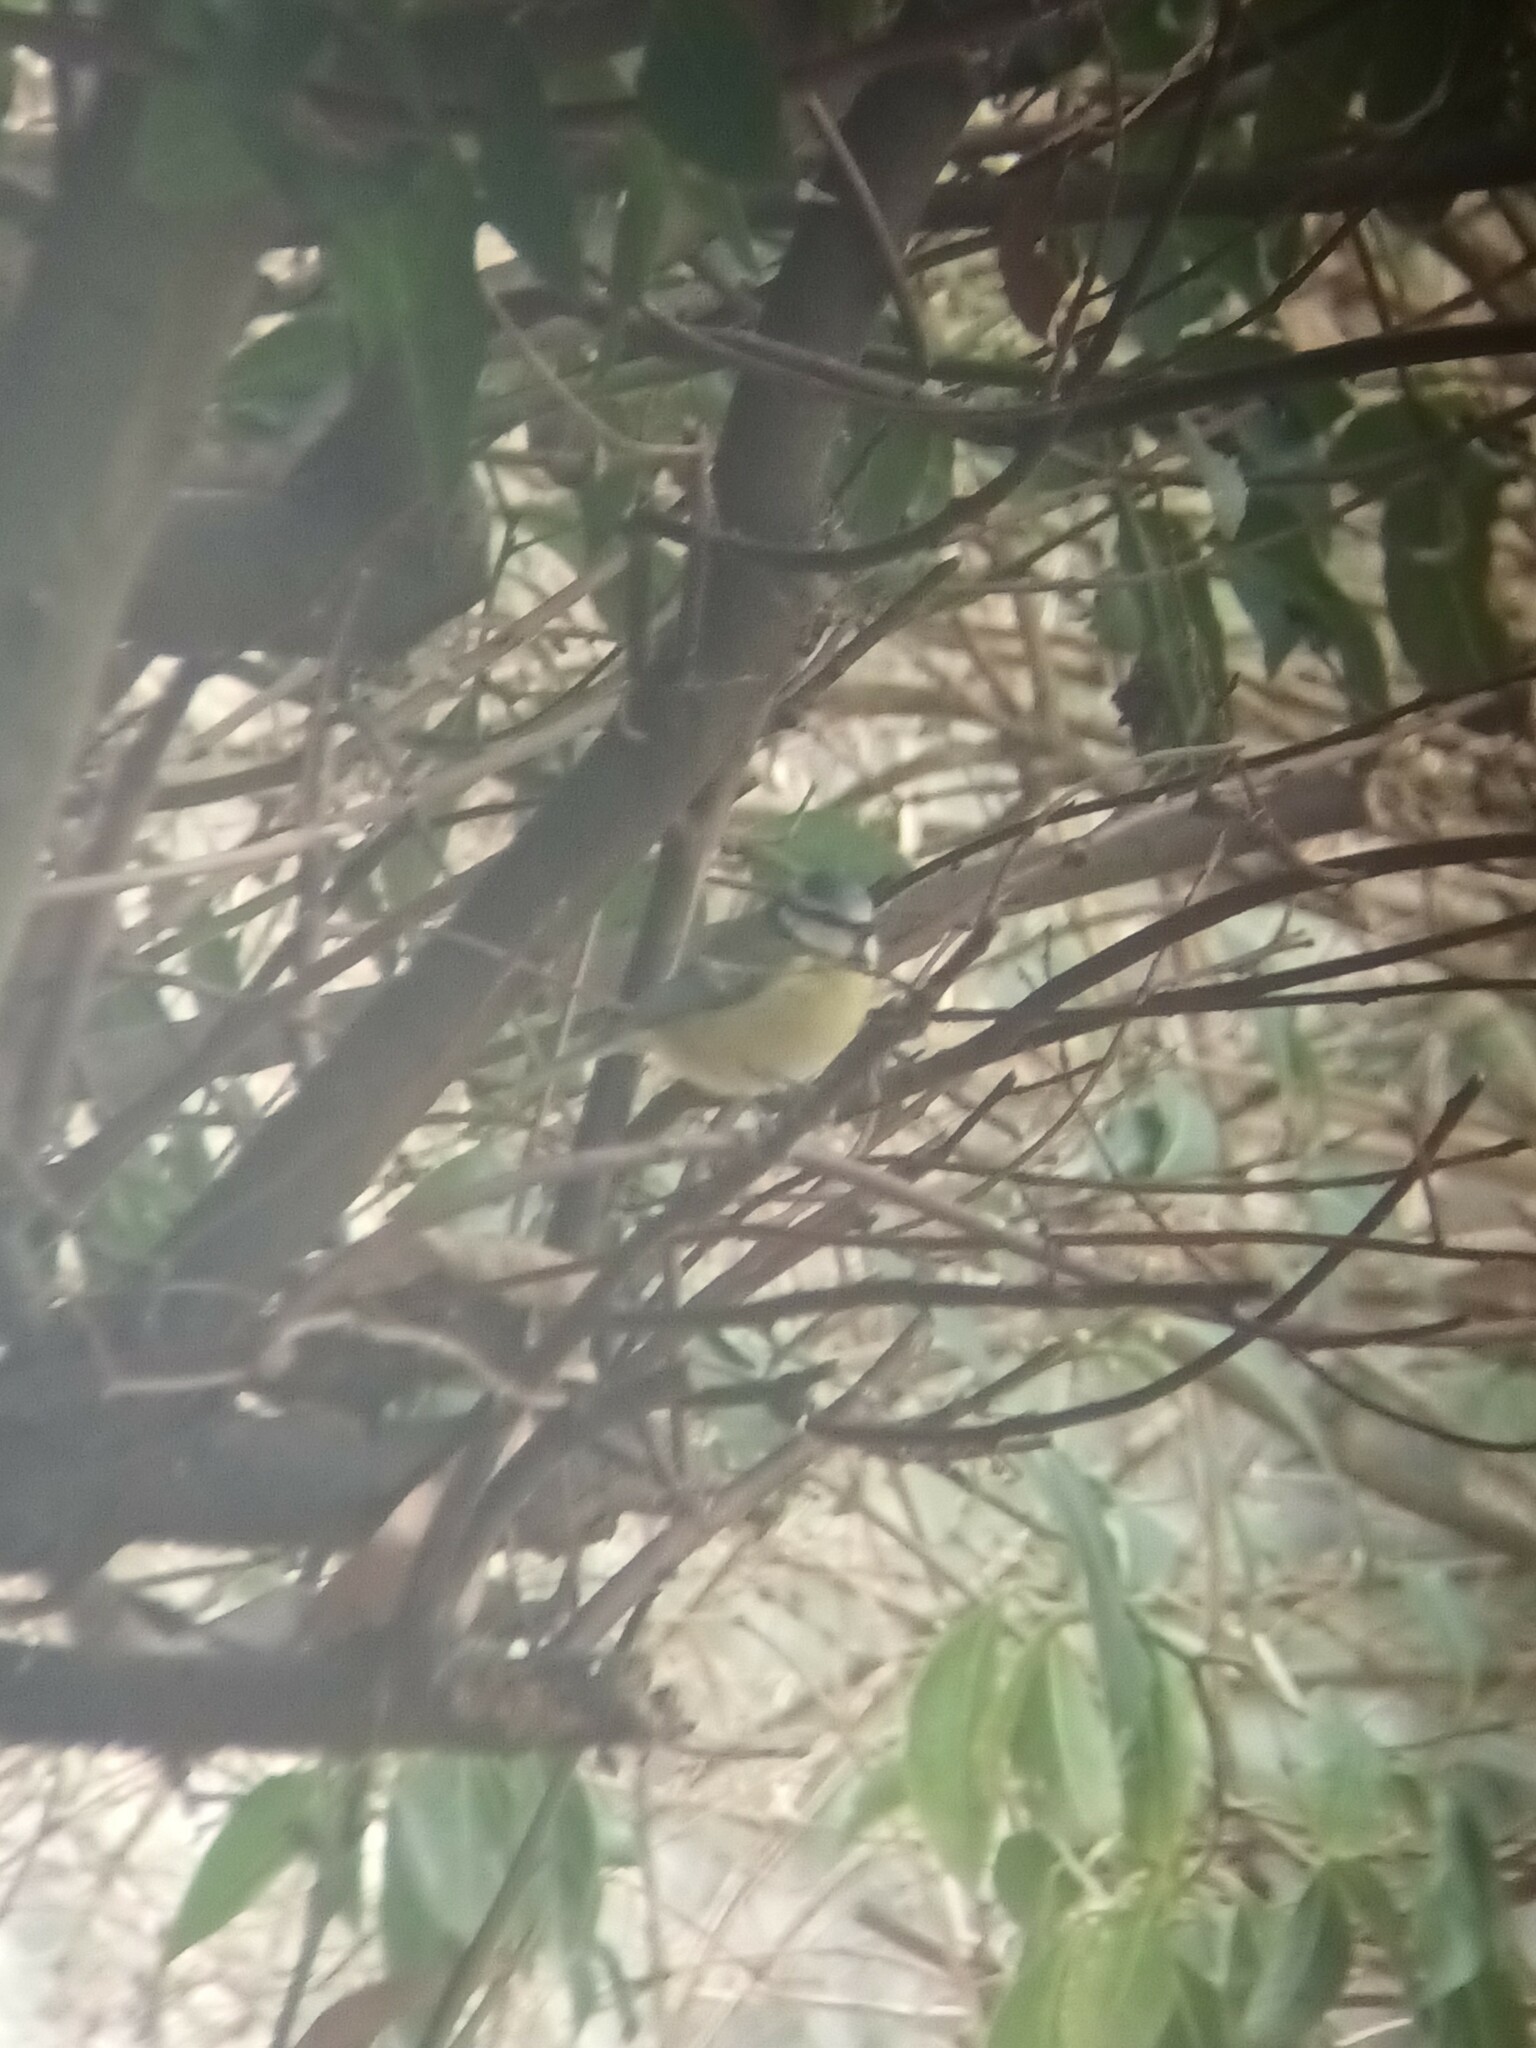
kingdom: Animalia
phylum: Chordata
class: Aves
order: Passeriformes
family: Paridae
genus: Cyanistes
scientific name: Cyanistes caeruleus
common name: Eurasian blue tit
